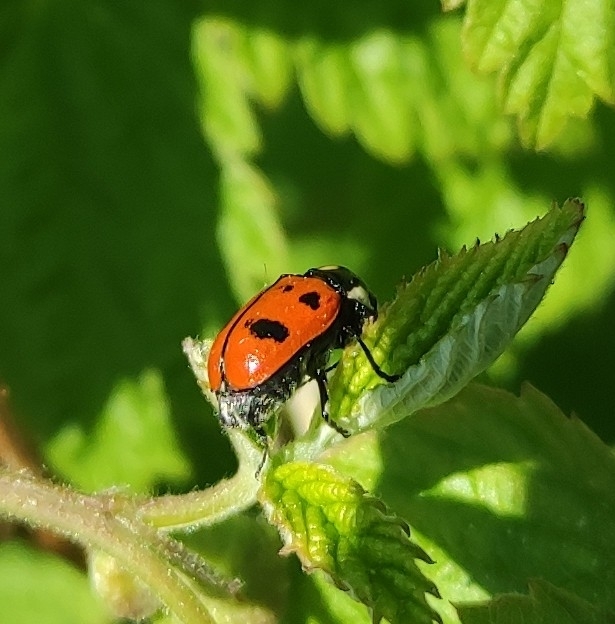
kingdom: Animalia
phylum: Arthropoda
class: Insecta
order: Coleoptera
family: Chrysomelidae
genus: Cryptocephalus
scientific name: Cryptocephalus octopunctatus
